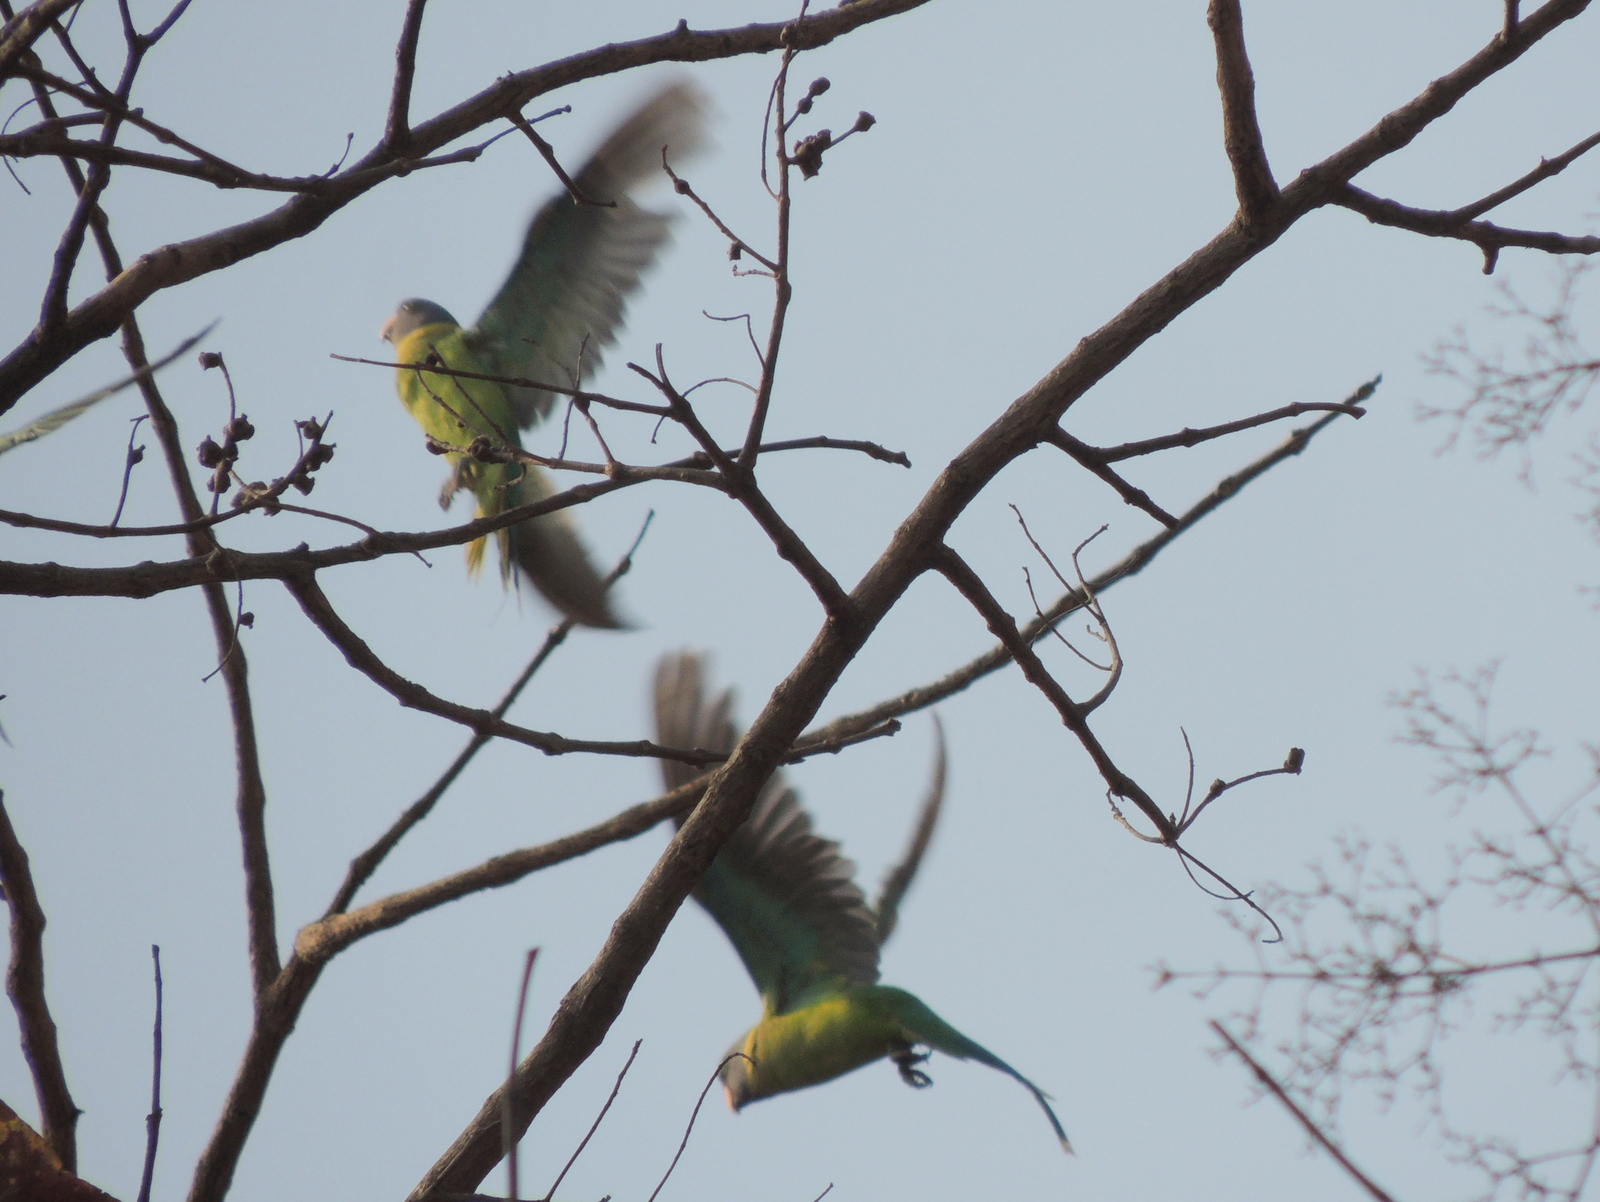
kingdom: Animalia
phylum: Chordata
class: Aves
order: Psittaciformes
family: Psittacidae
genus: Psittacula
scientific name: Psittacula cyanocephala
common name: Plum-headed parakeet
